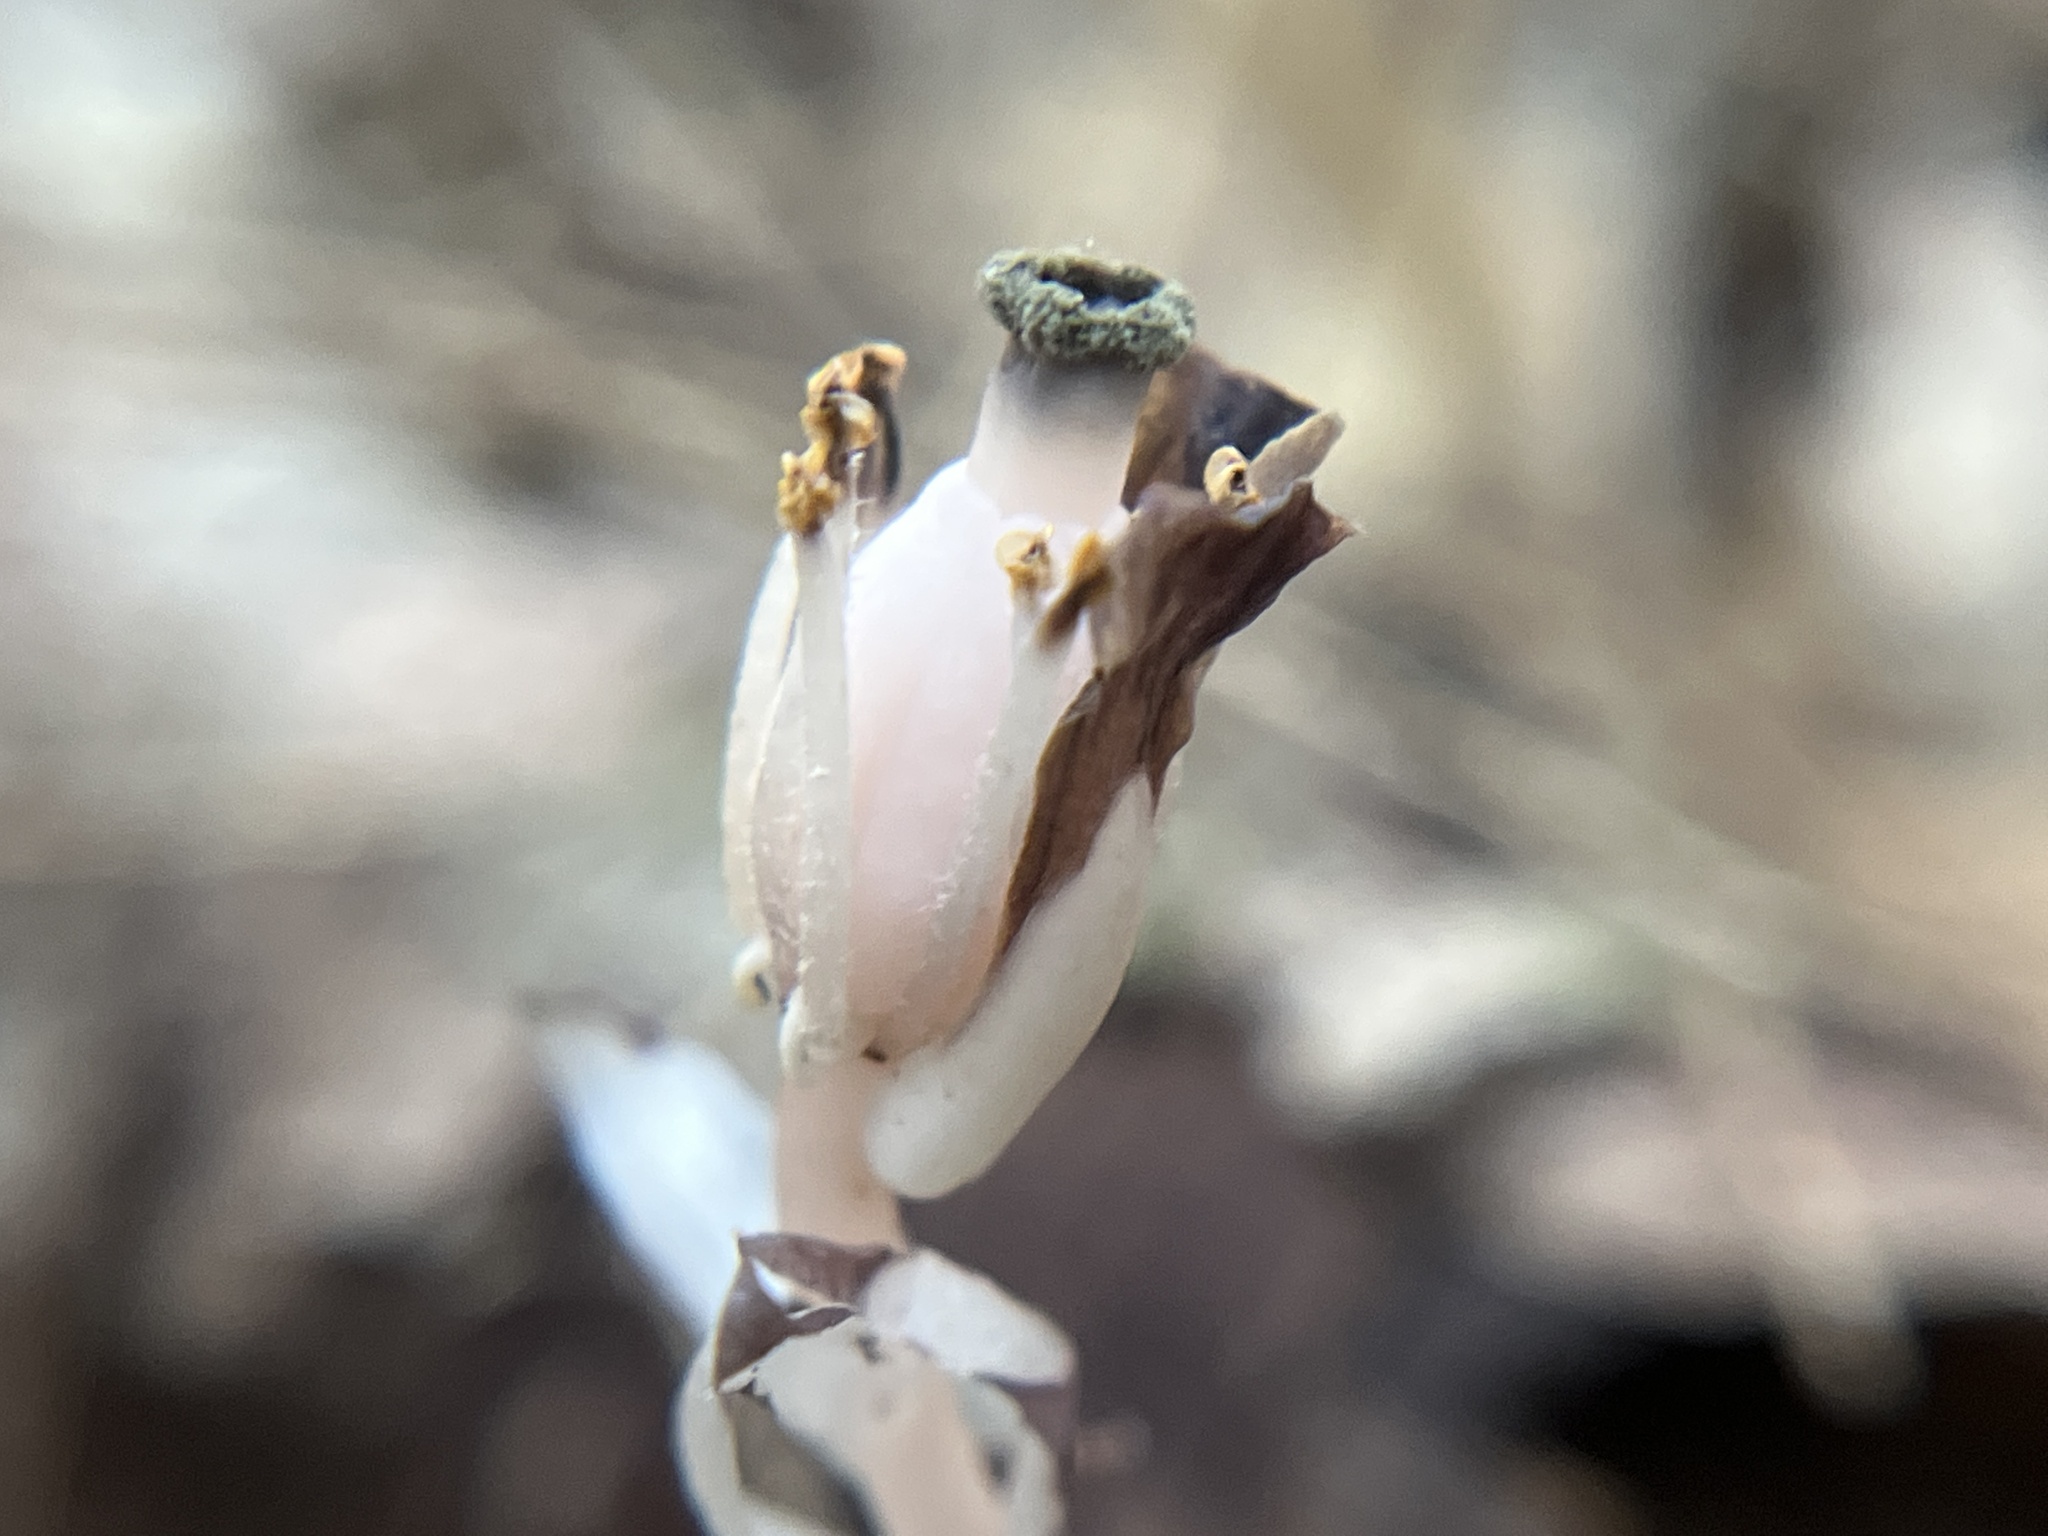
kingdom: Plantae
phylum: Tracheophyta
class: Magnoliopsida
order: Ericales
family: Ericaceae
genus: Monotropa
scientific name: Monotropa uniflora
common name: Convulsion root
